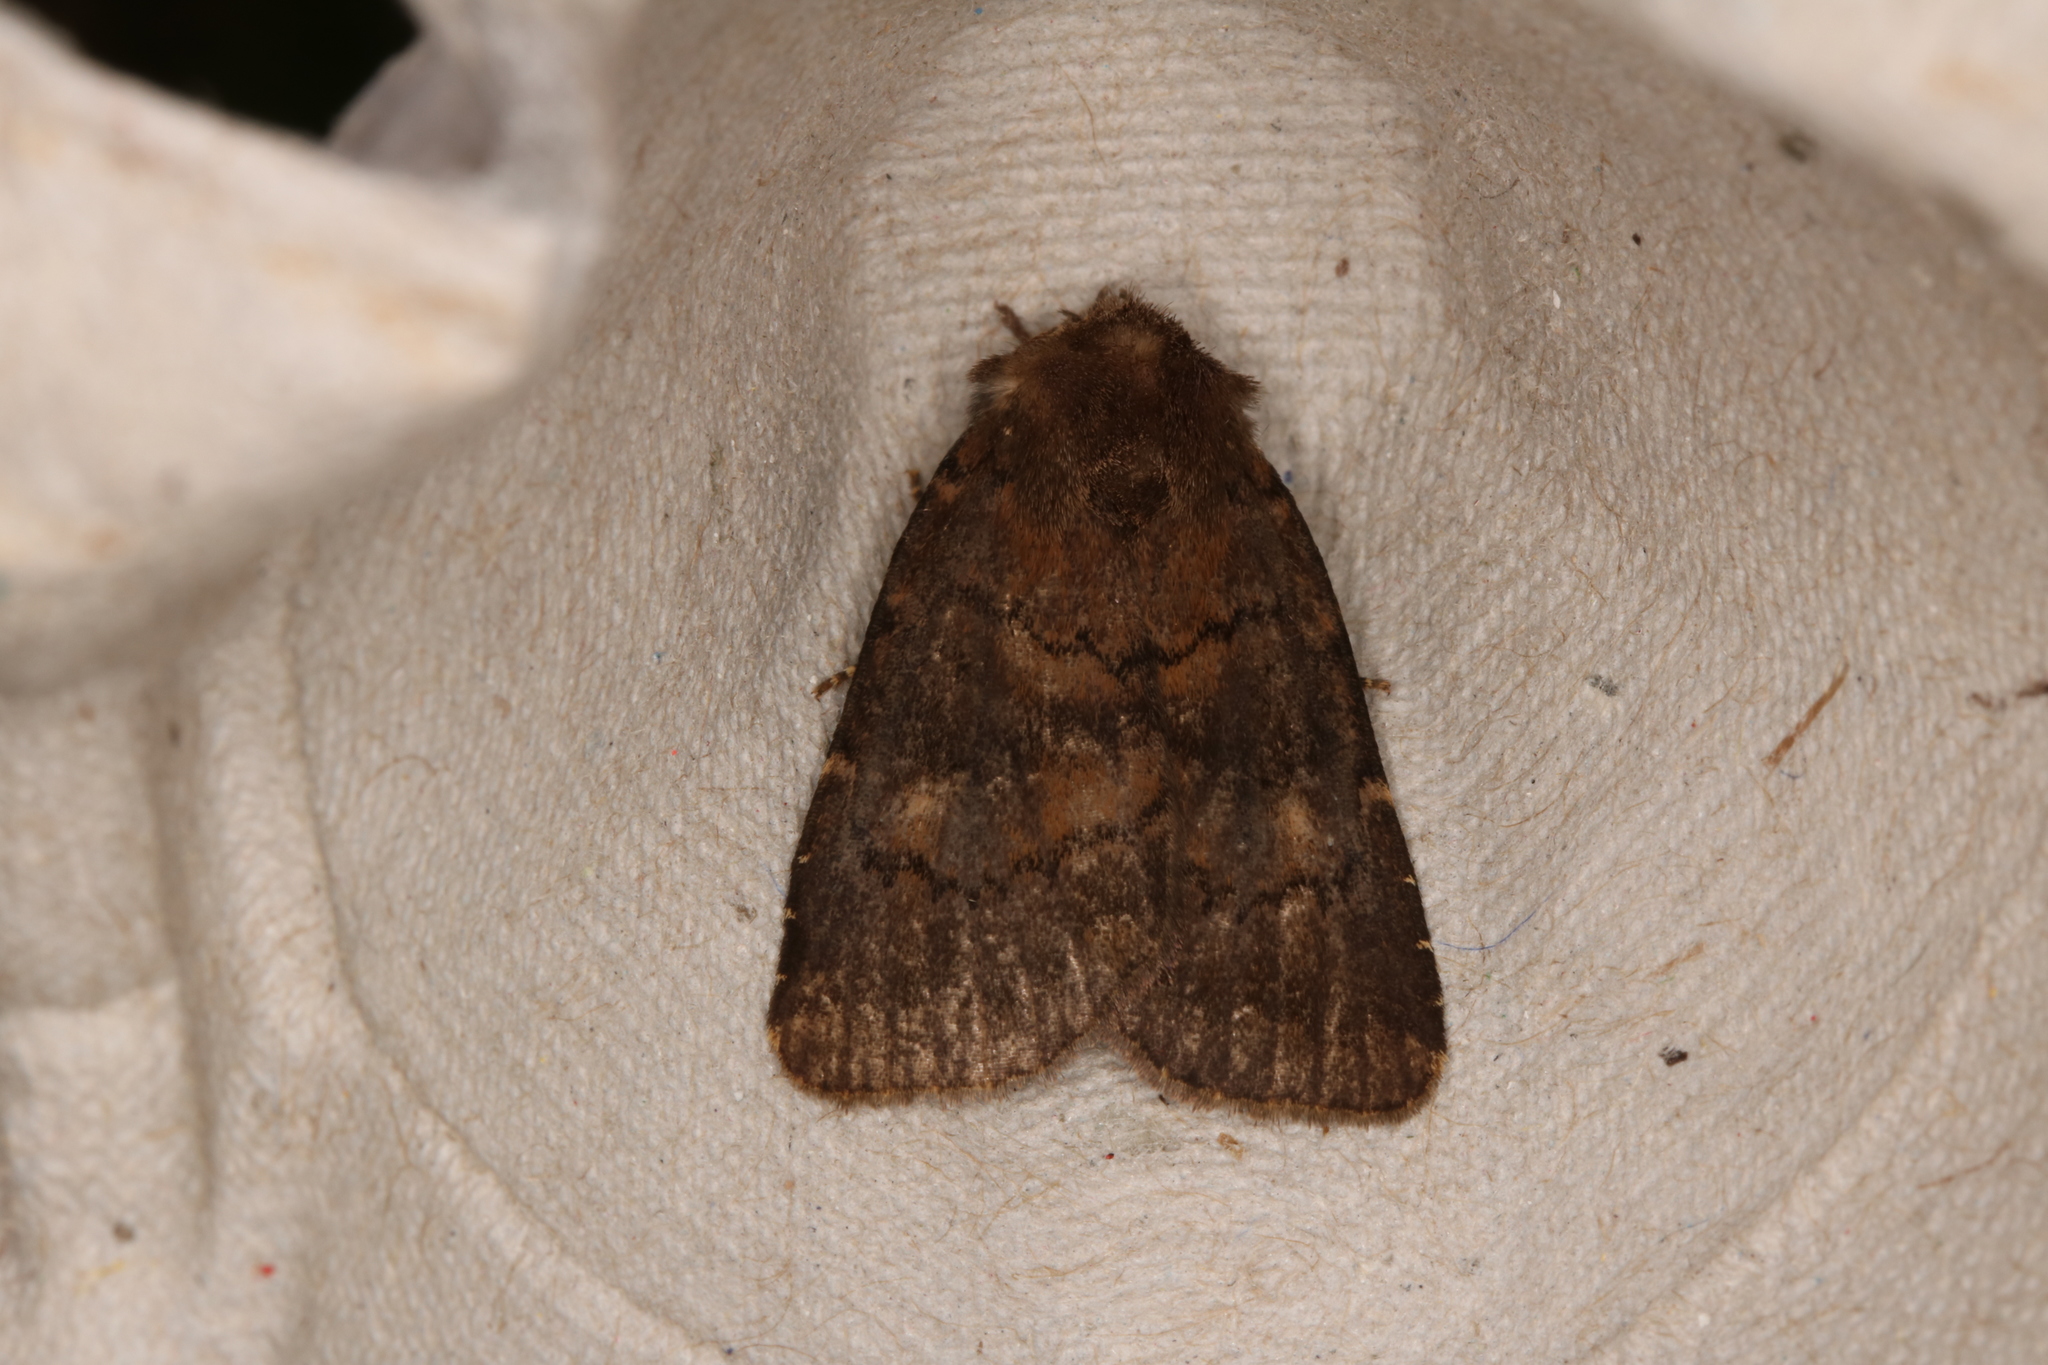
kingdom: Animalia
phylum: Arthropoda
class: Insecta
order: Lepidoptera
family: Noctuidae
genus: Charanyca
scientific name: Charanyca ferruginea
